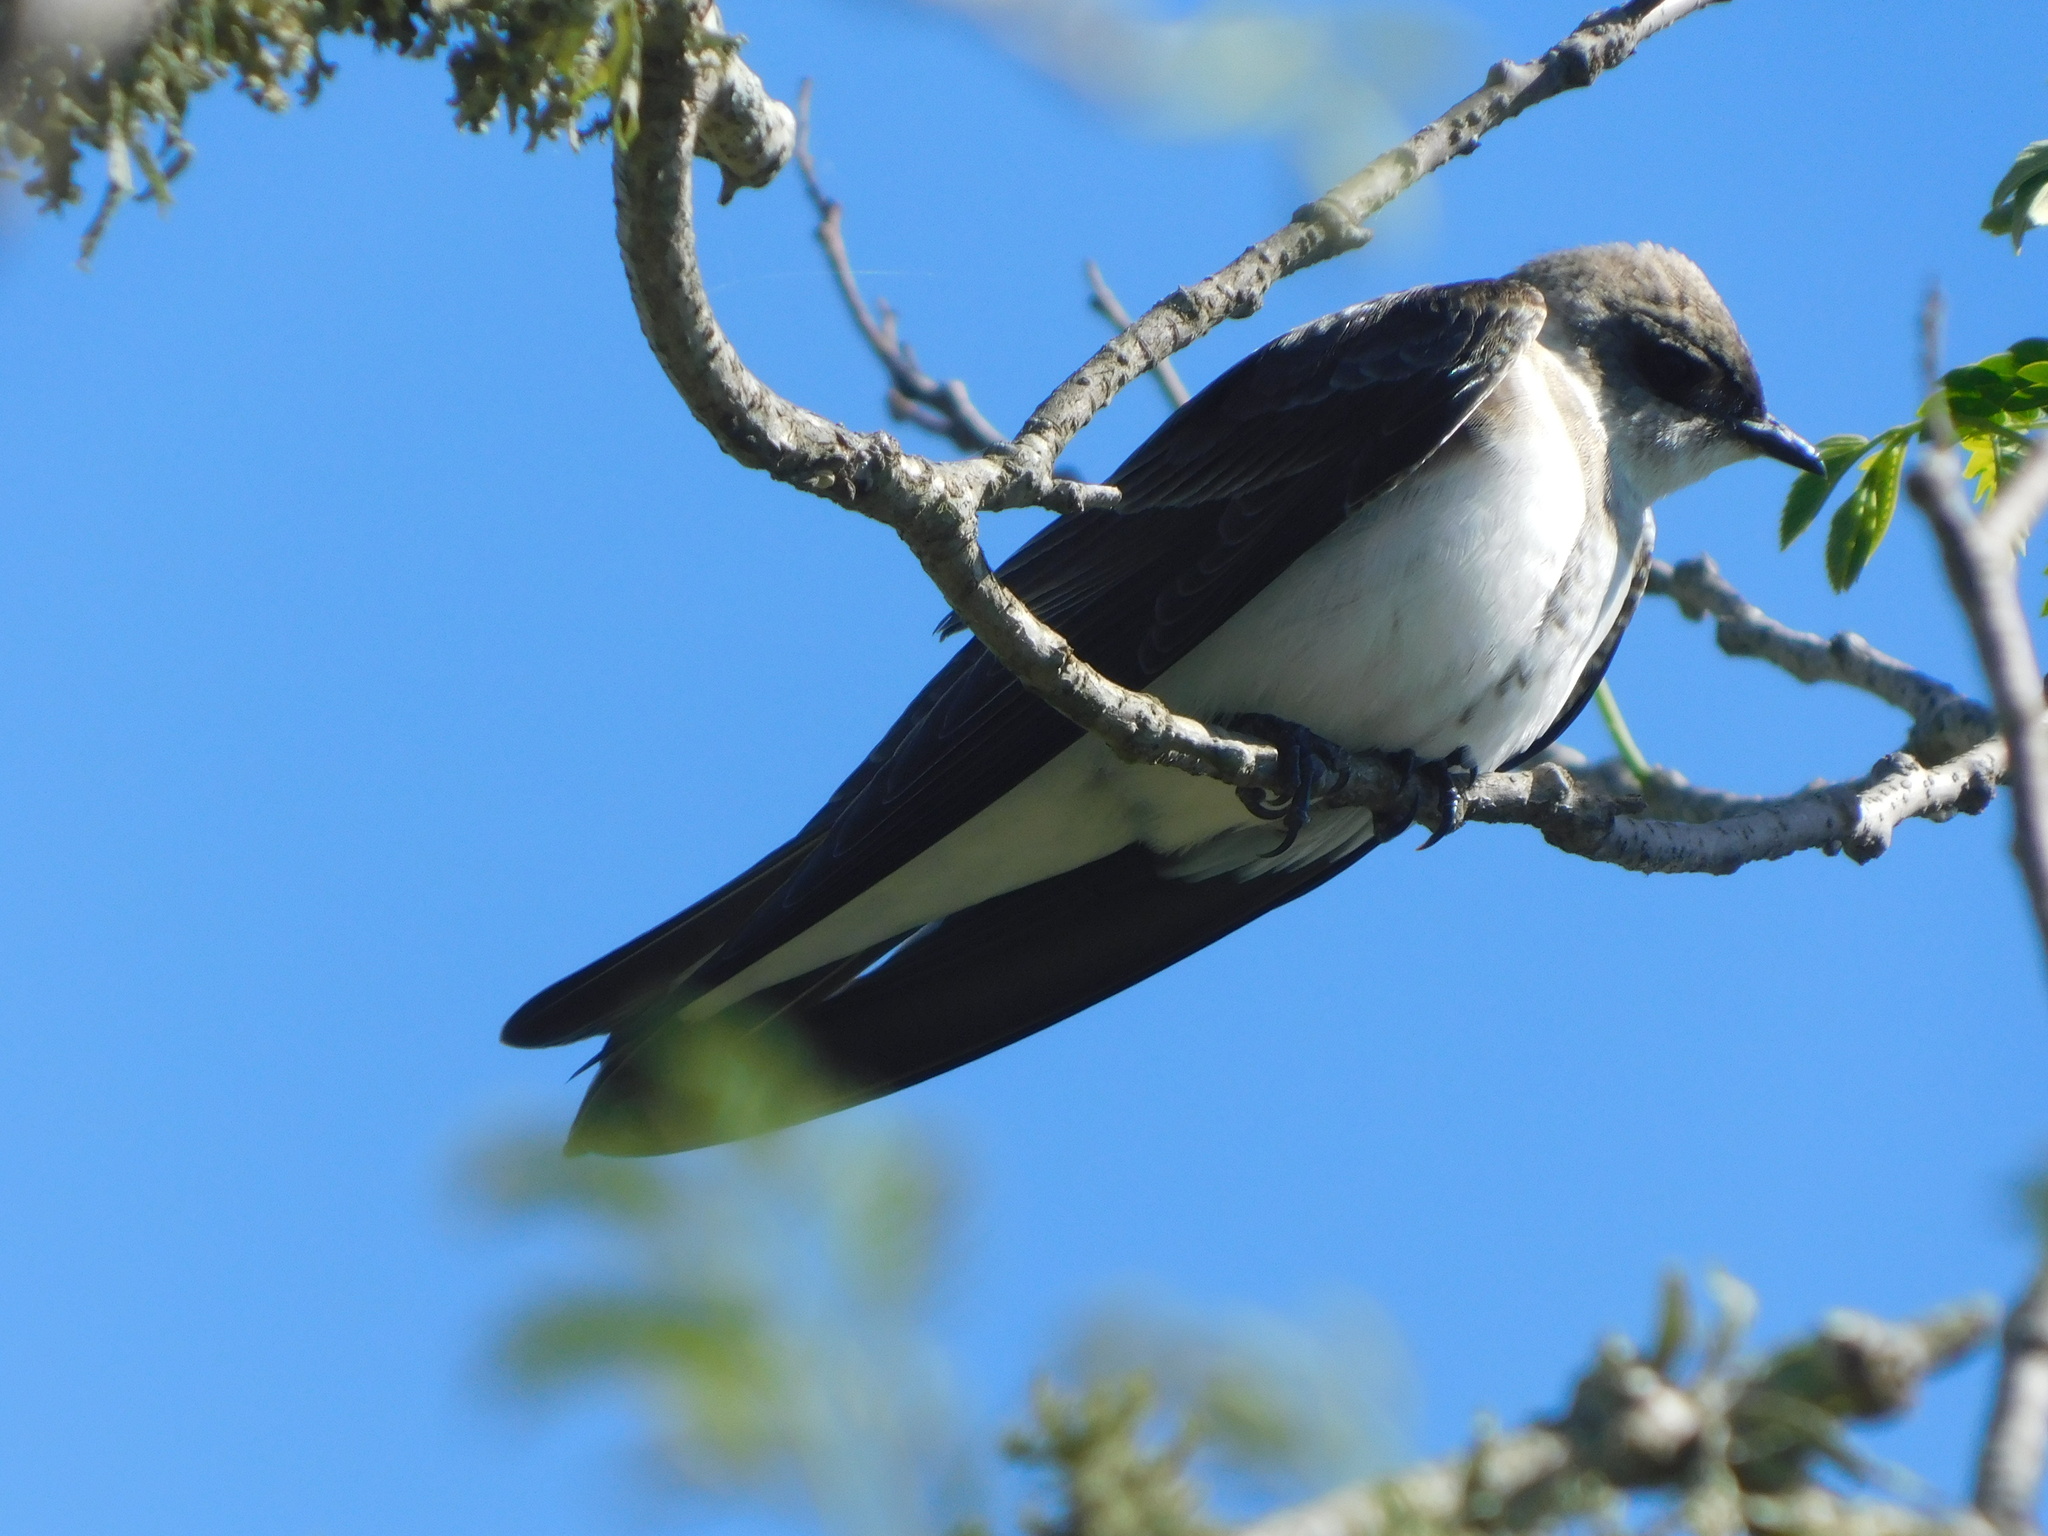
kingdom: Animalia
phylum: Chordata
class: Aves
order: Passeriformes
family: Hirundinidae
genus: Progne
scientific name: Progne tapera
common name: Brown-chested martin
